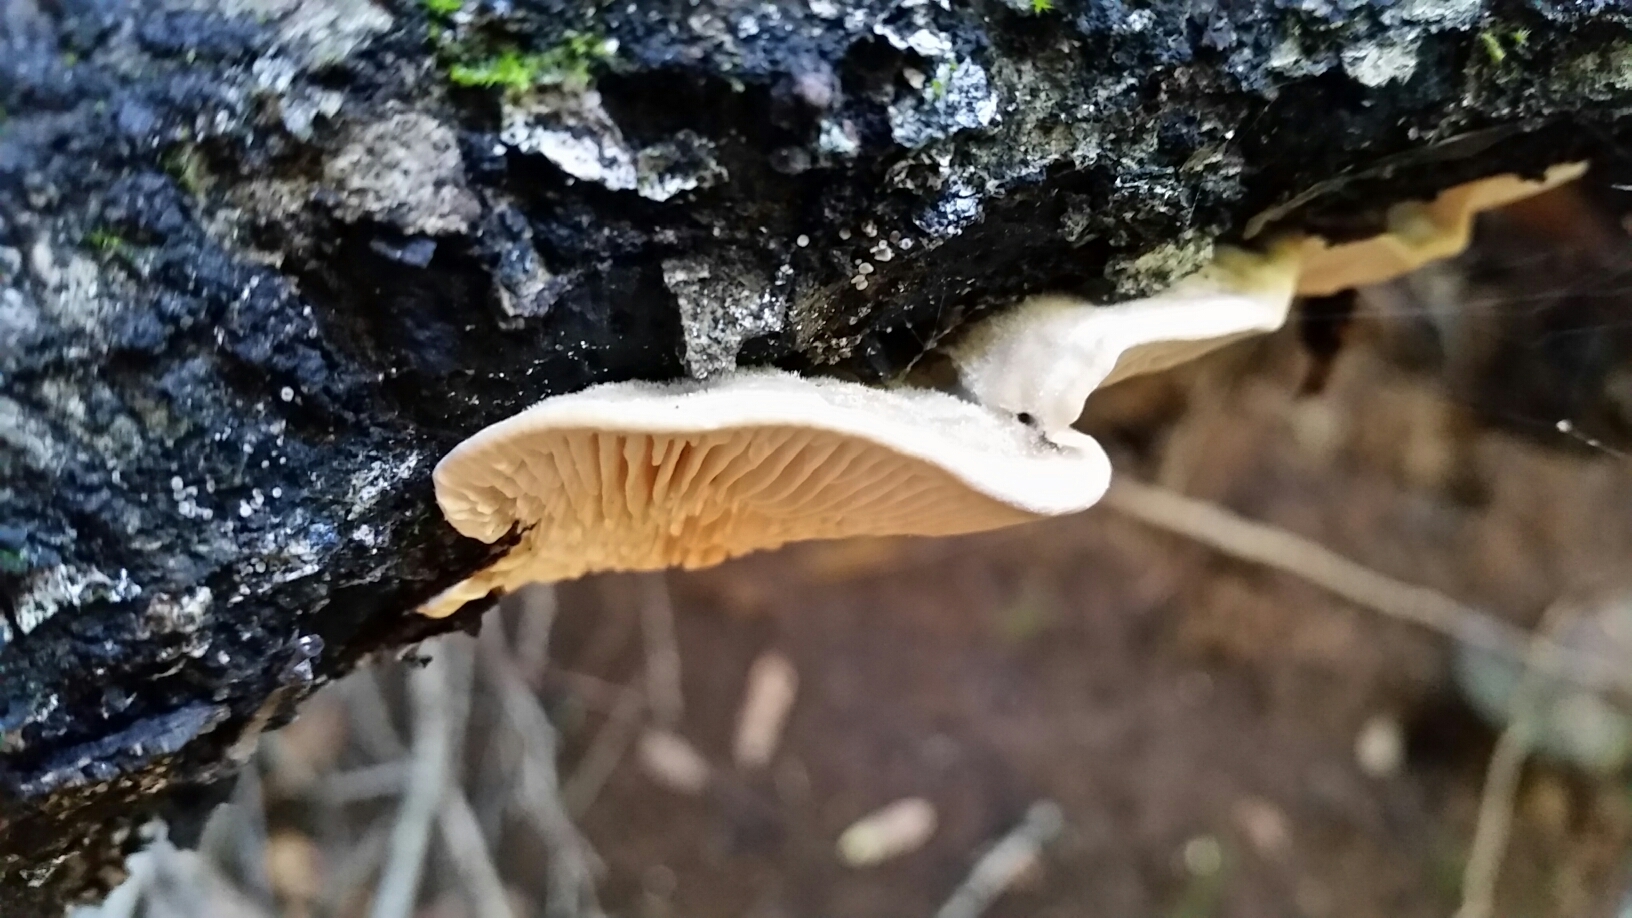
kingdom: Fungi
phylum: Basidiomycota
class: Agaricomycetes
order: Polyporales
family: Polyporaceae
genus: Lenzites
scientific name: Lenzites betulinus
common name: Birch mazegill
